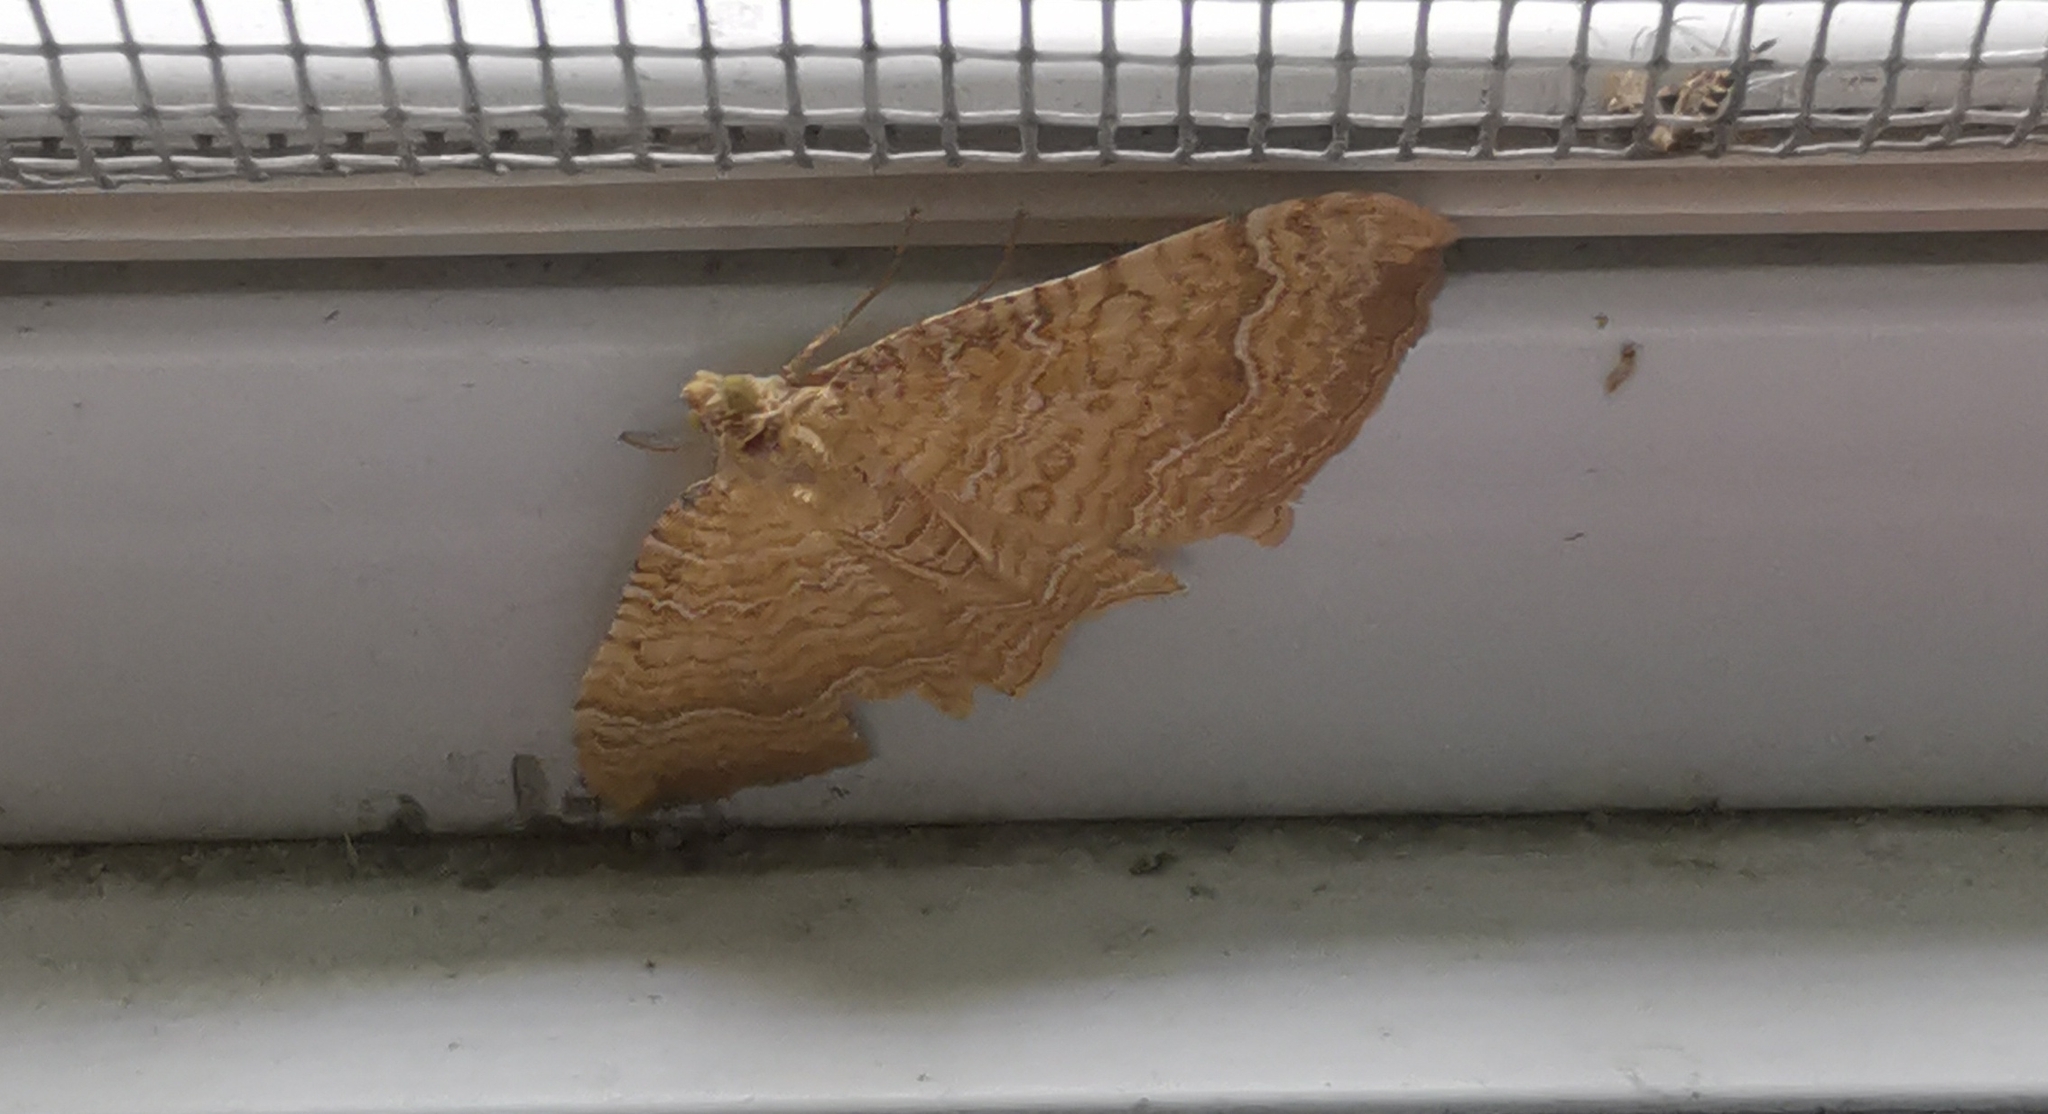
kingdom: Animalia
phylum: Arthropoda
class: Insecta
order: Lepidoptera
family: Geometridae
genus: Camptogramma
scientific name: Camptogramma bilineata
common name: Yellow shell
